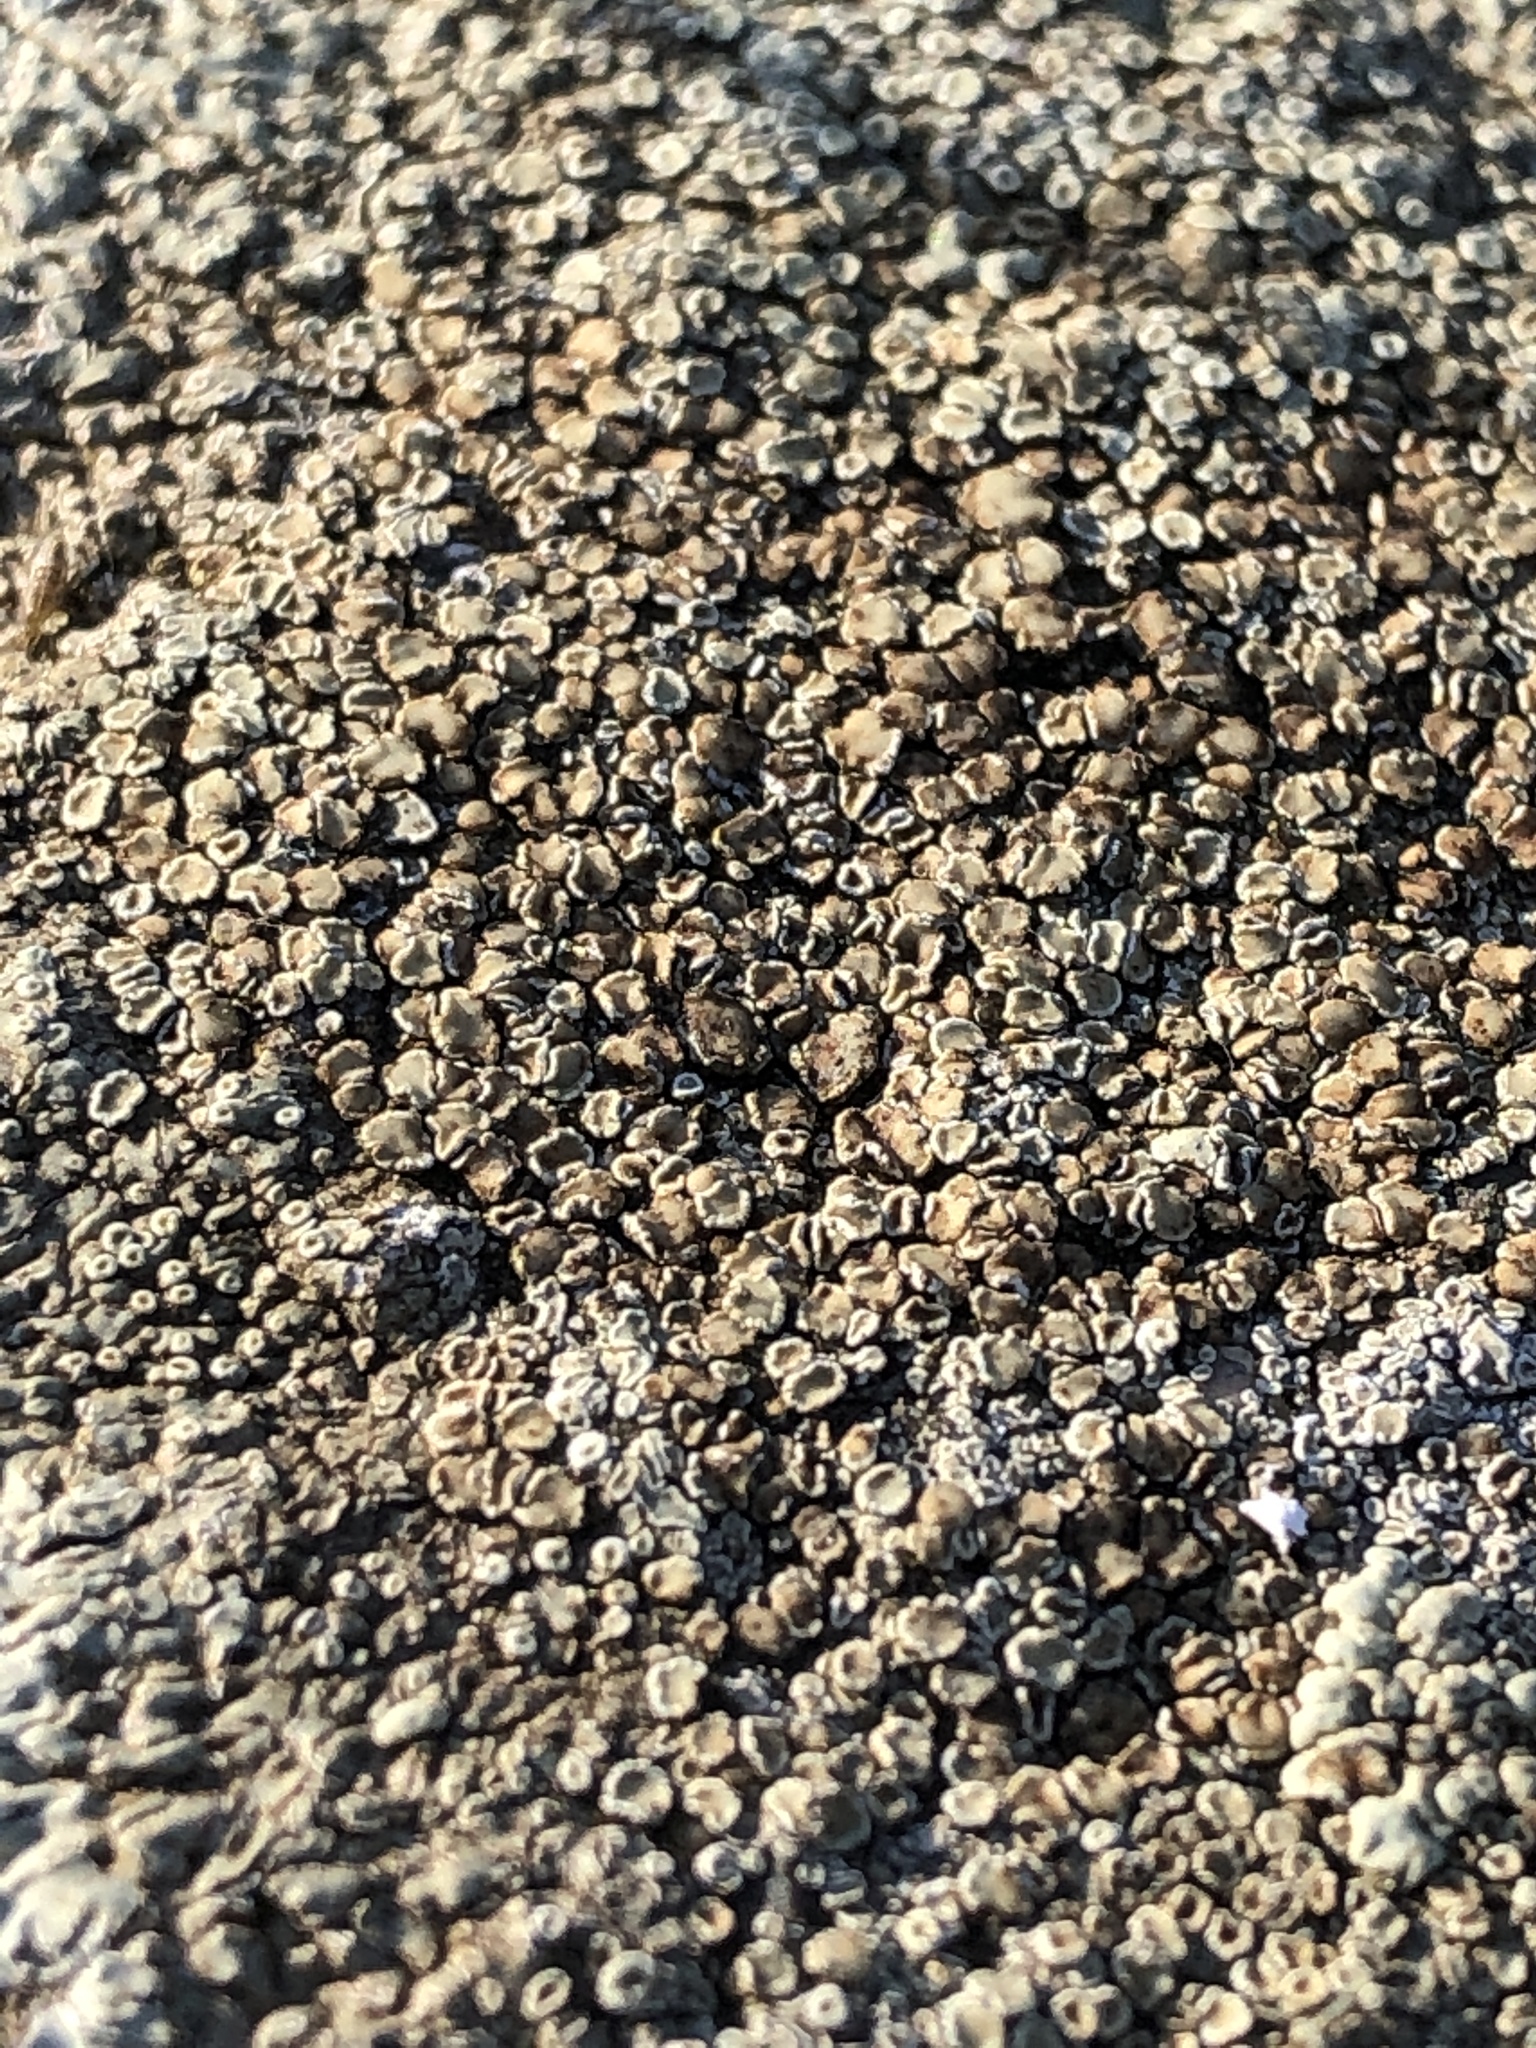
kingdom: Fungi
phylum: Ascomycota
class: Lecanoromycetes
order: Lecanorales
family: Lecanoraceae
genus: Protoparmeliopsis
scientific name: Protoparmeliopsis muralis
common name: Stonewall rim lichen
